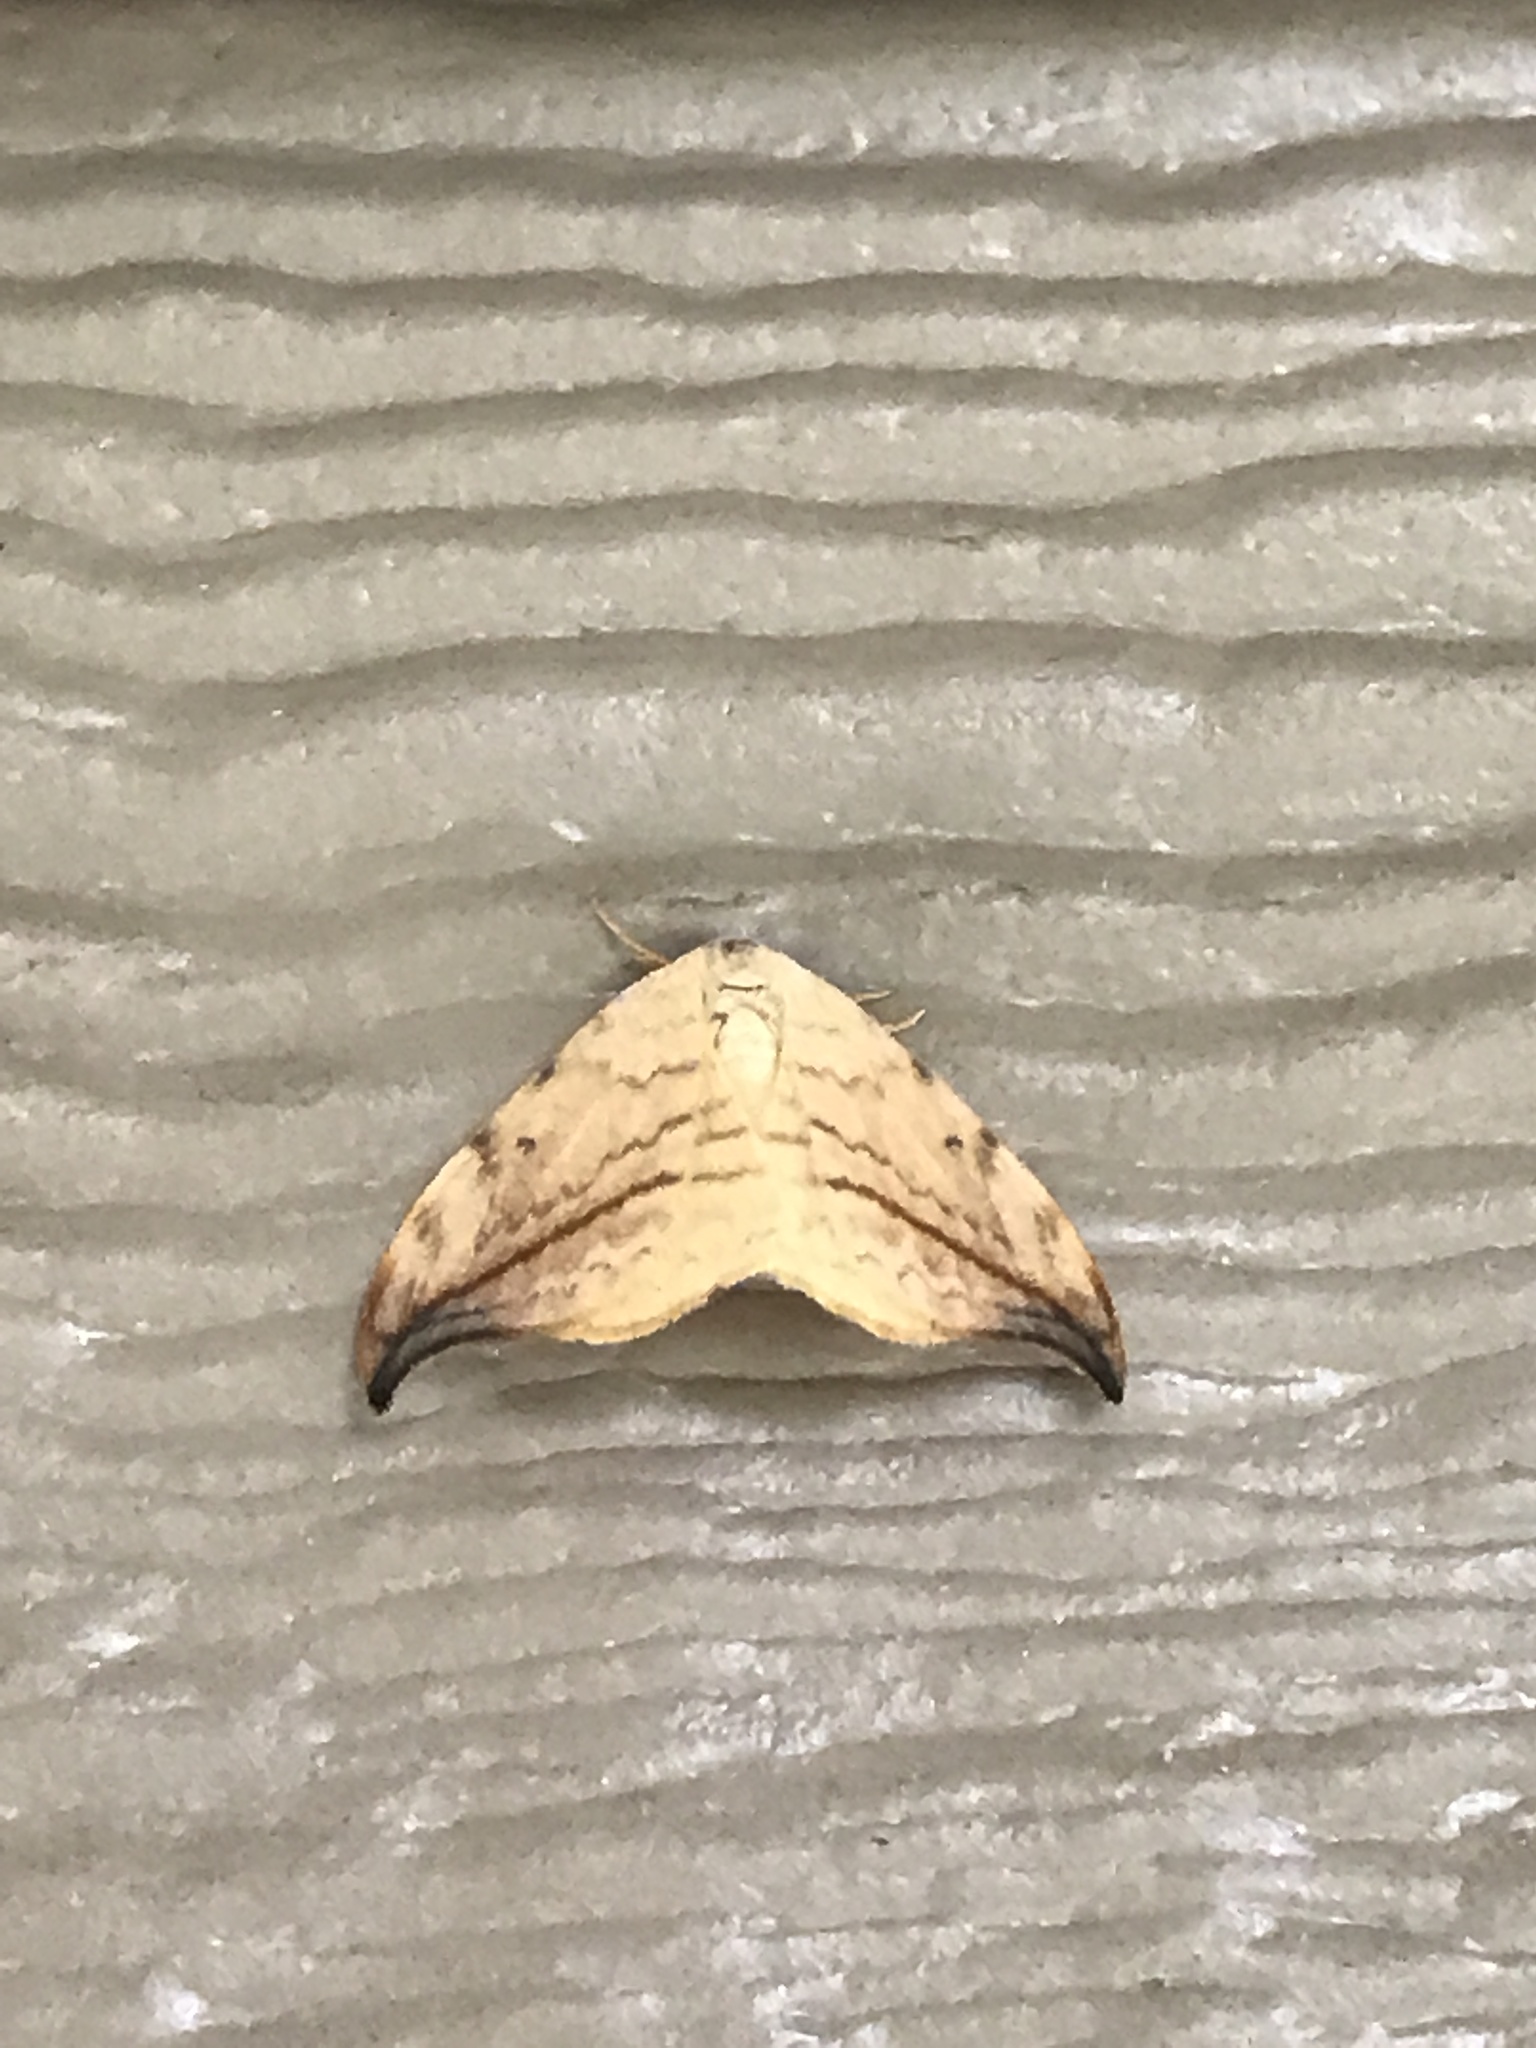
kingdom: Animalia
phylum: Arthropoda
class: Insecta
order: Lepidoptera
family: Drepanidae
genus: Drepana
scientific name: Drepana arcuata
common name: Arched hooktip moth
